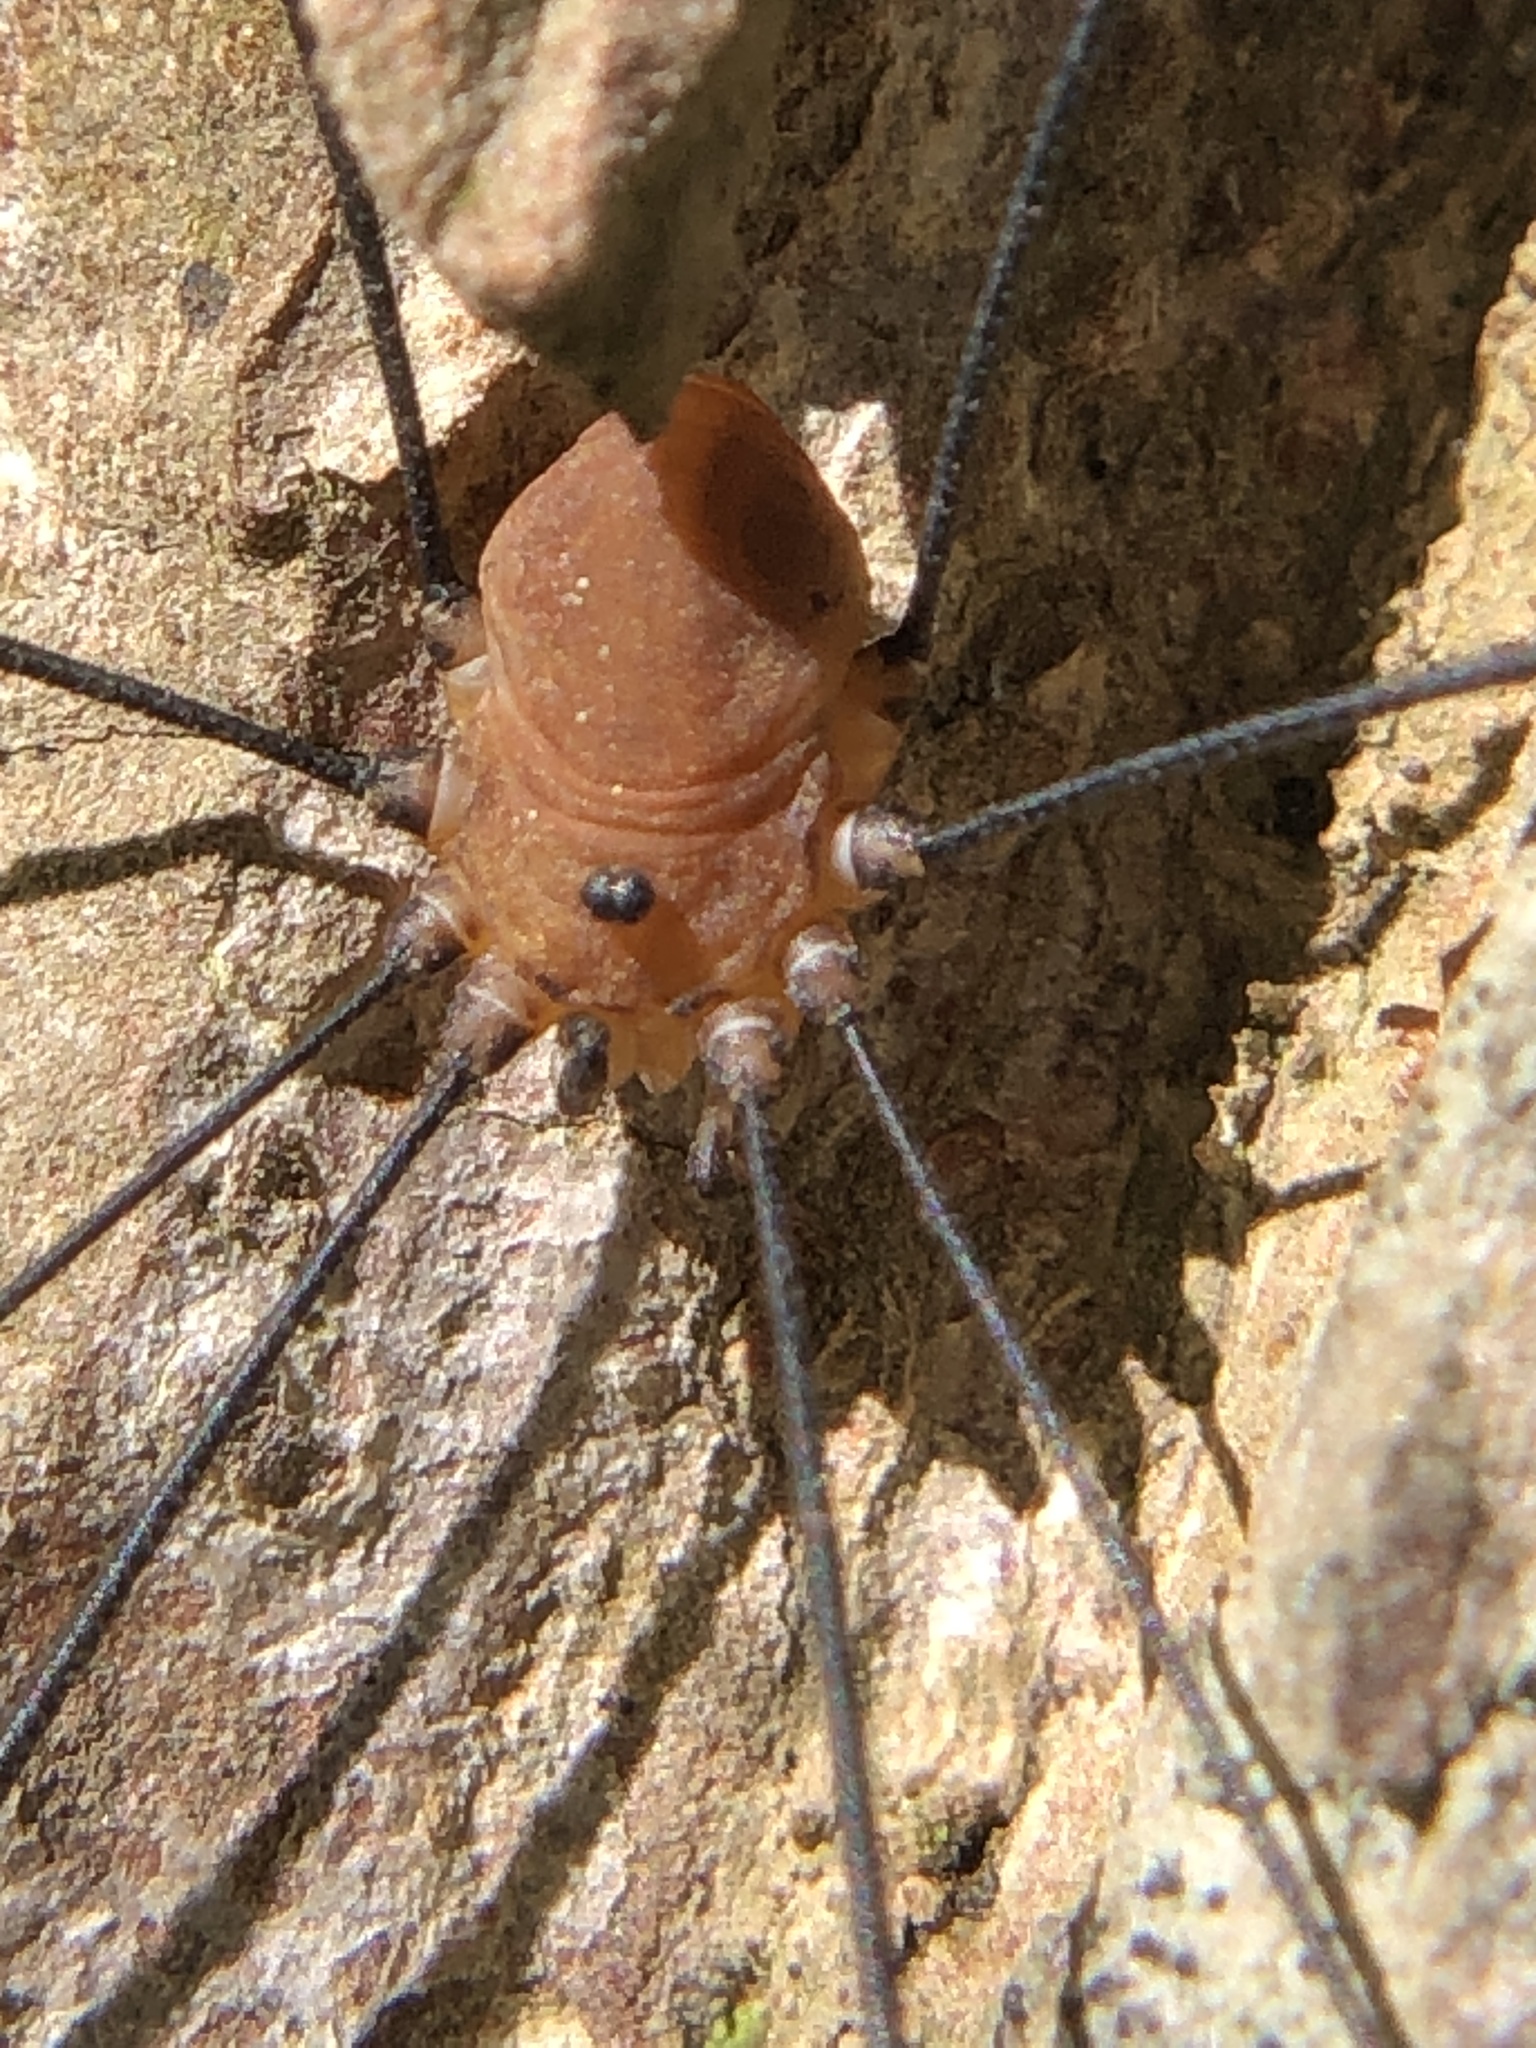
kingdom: Animalia
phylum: Arthropoda
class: Arachnida
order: Opiliones
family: Sclerosomatidae
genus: Leiobunum
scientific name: Leiobunum rotundum
